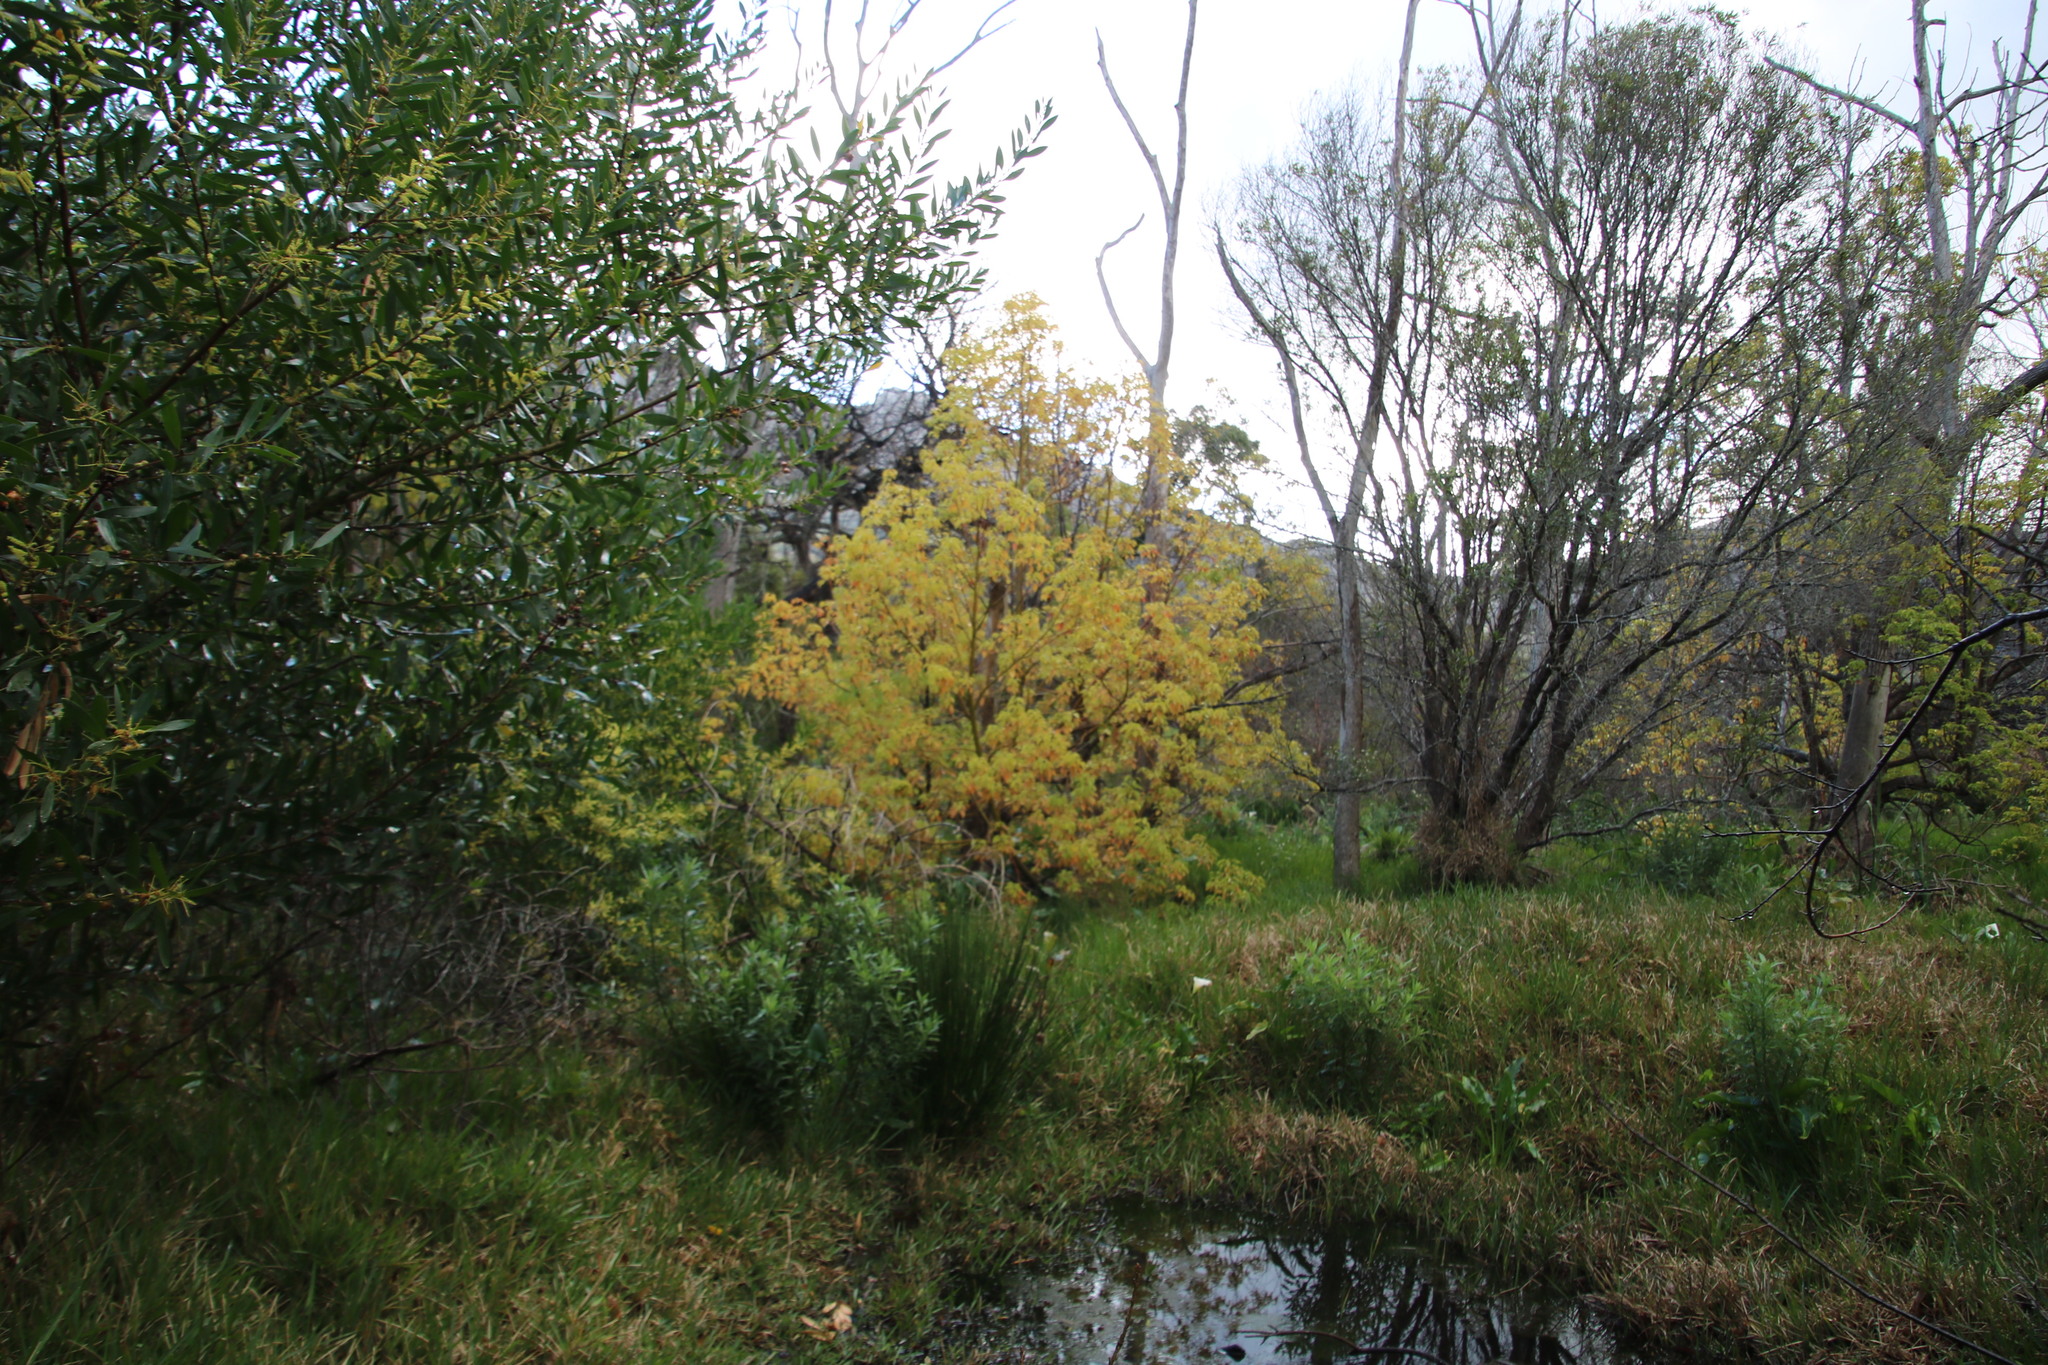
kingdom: Plantae
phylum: Tracheophyta
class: Magnoliopsida
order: Laurales
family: Lauraceae
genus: Cinnamomum
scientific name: Cinnamomum camphora
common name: Camphortree
